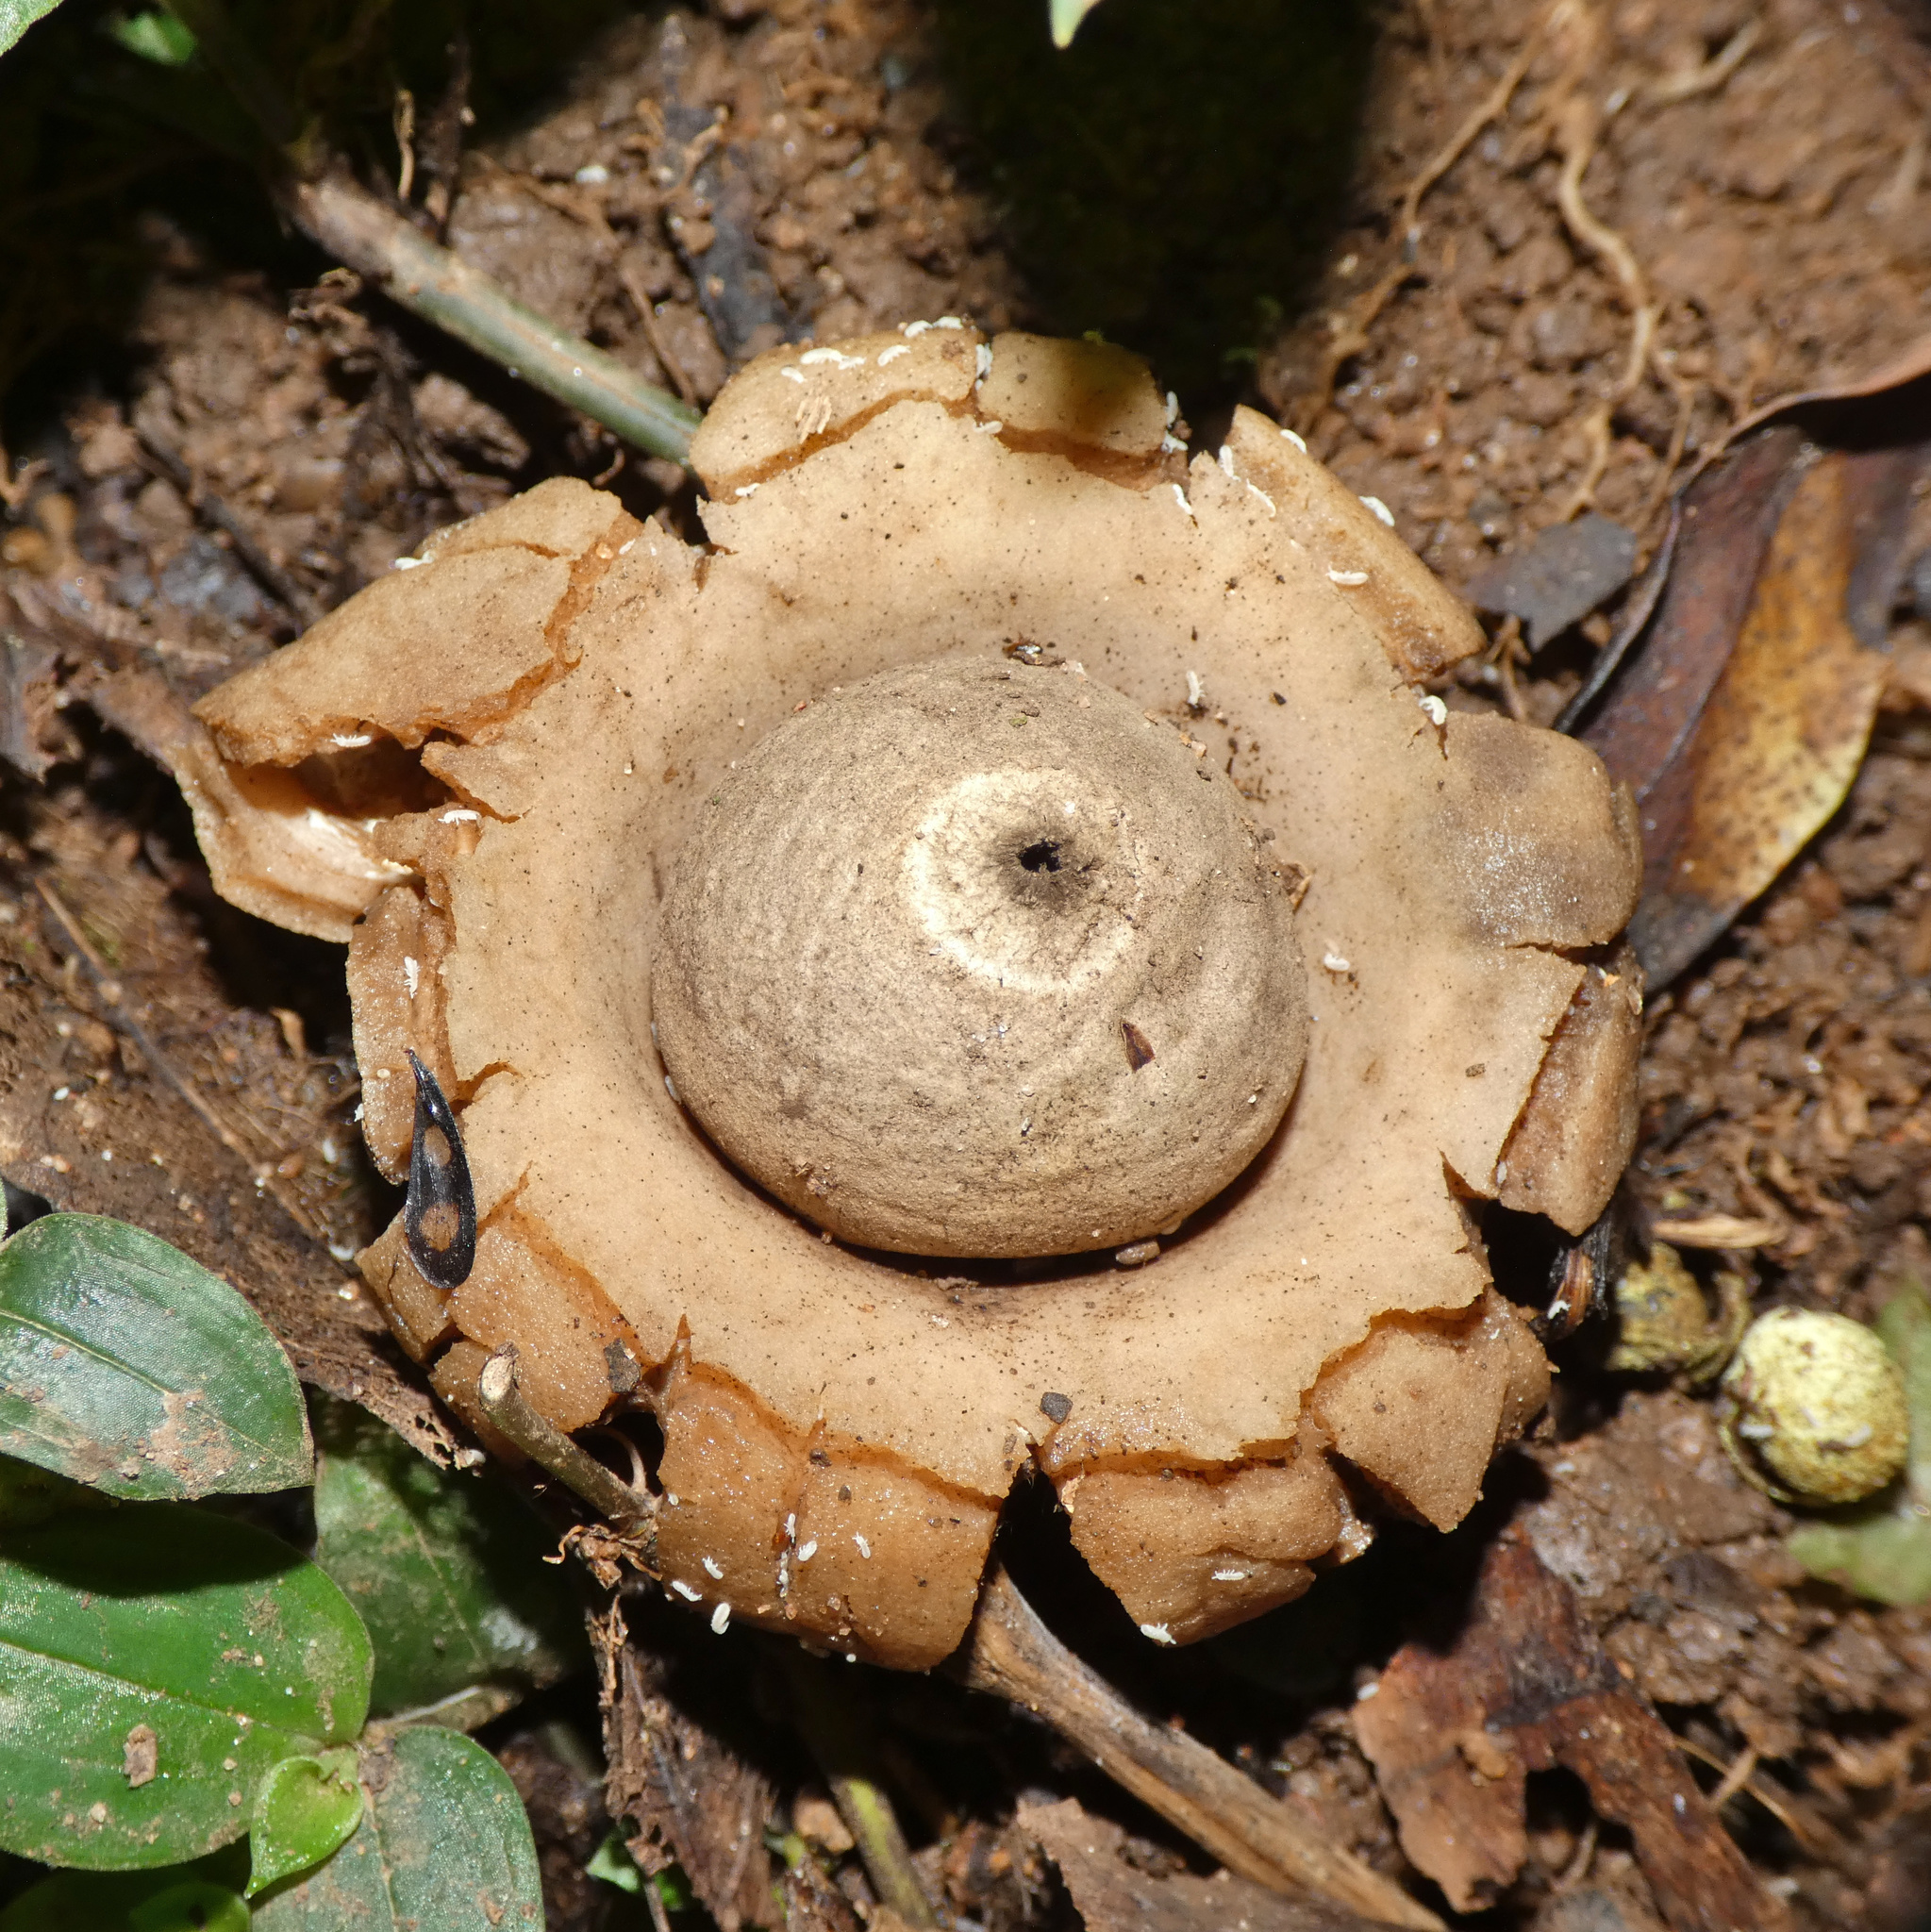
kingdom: Fungi
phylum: Basidiomycota
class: Agaricomycetes
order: Geastrales
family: Geastraceae
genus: Geastrum
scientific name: Geastrum saccatum
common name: Rounded earthstar
